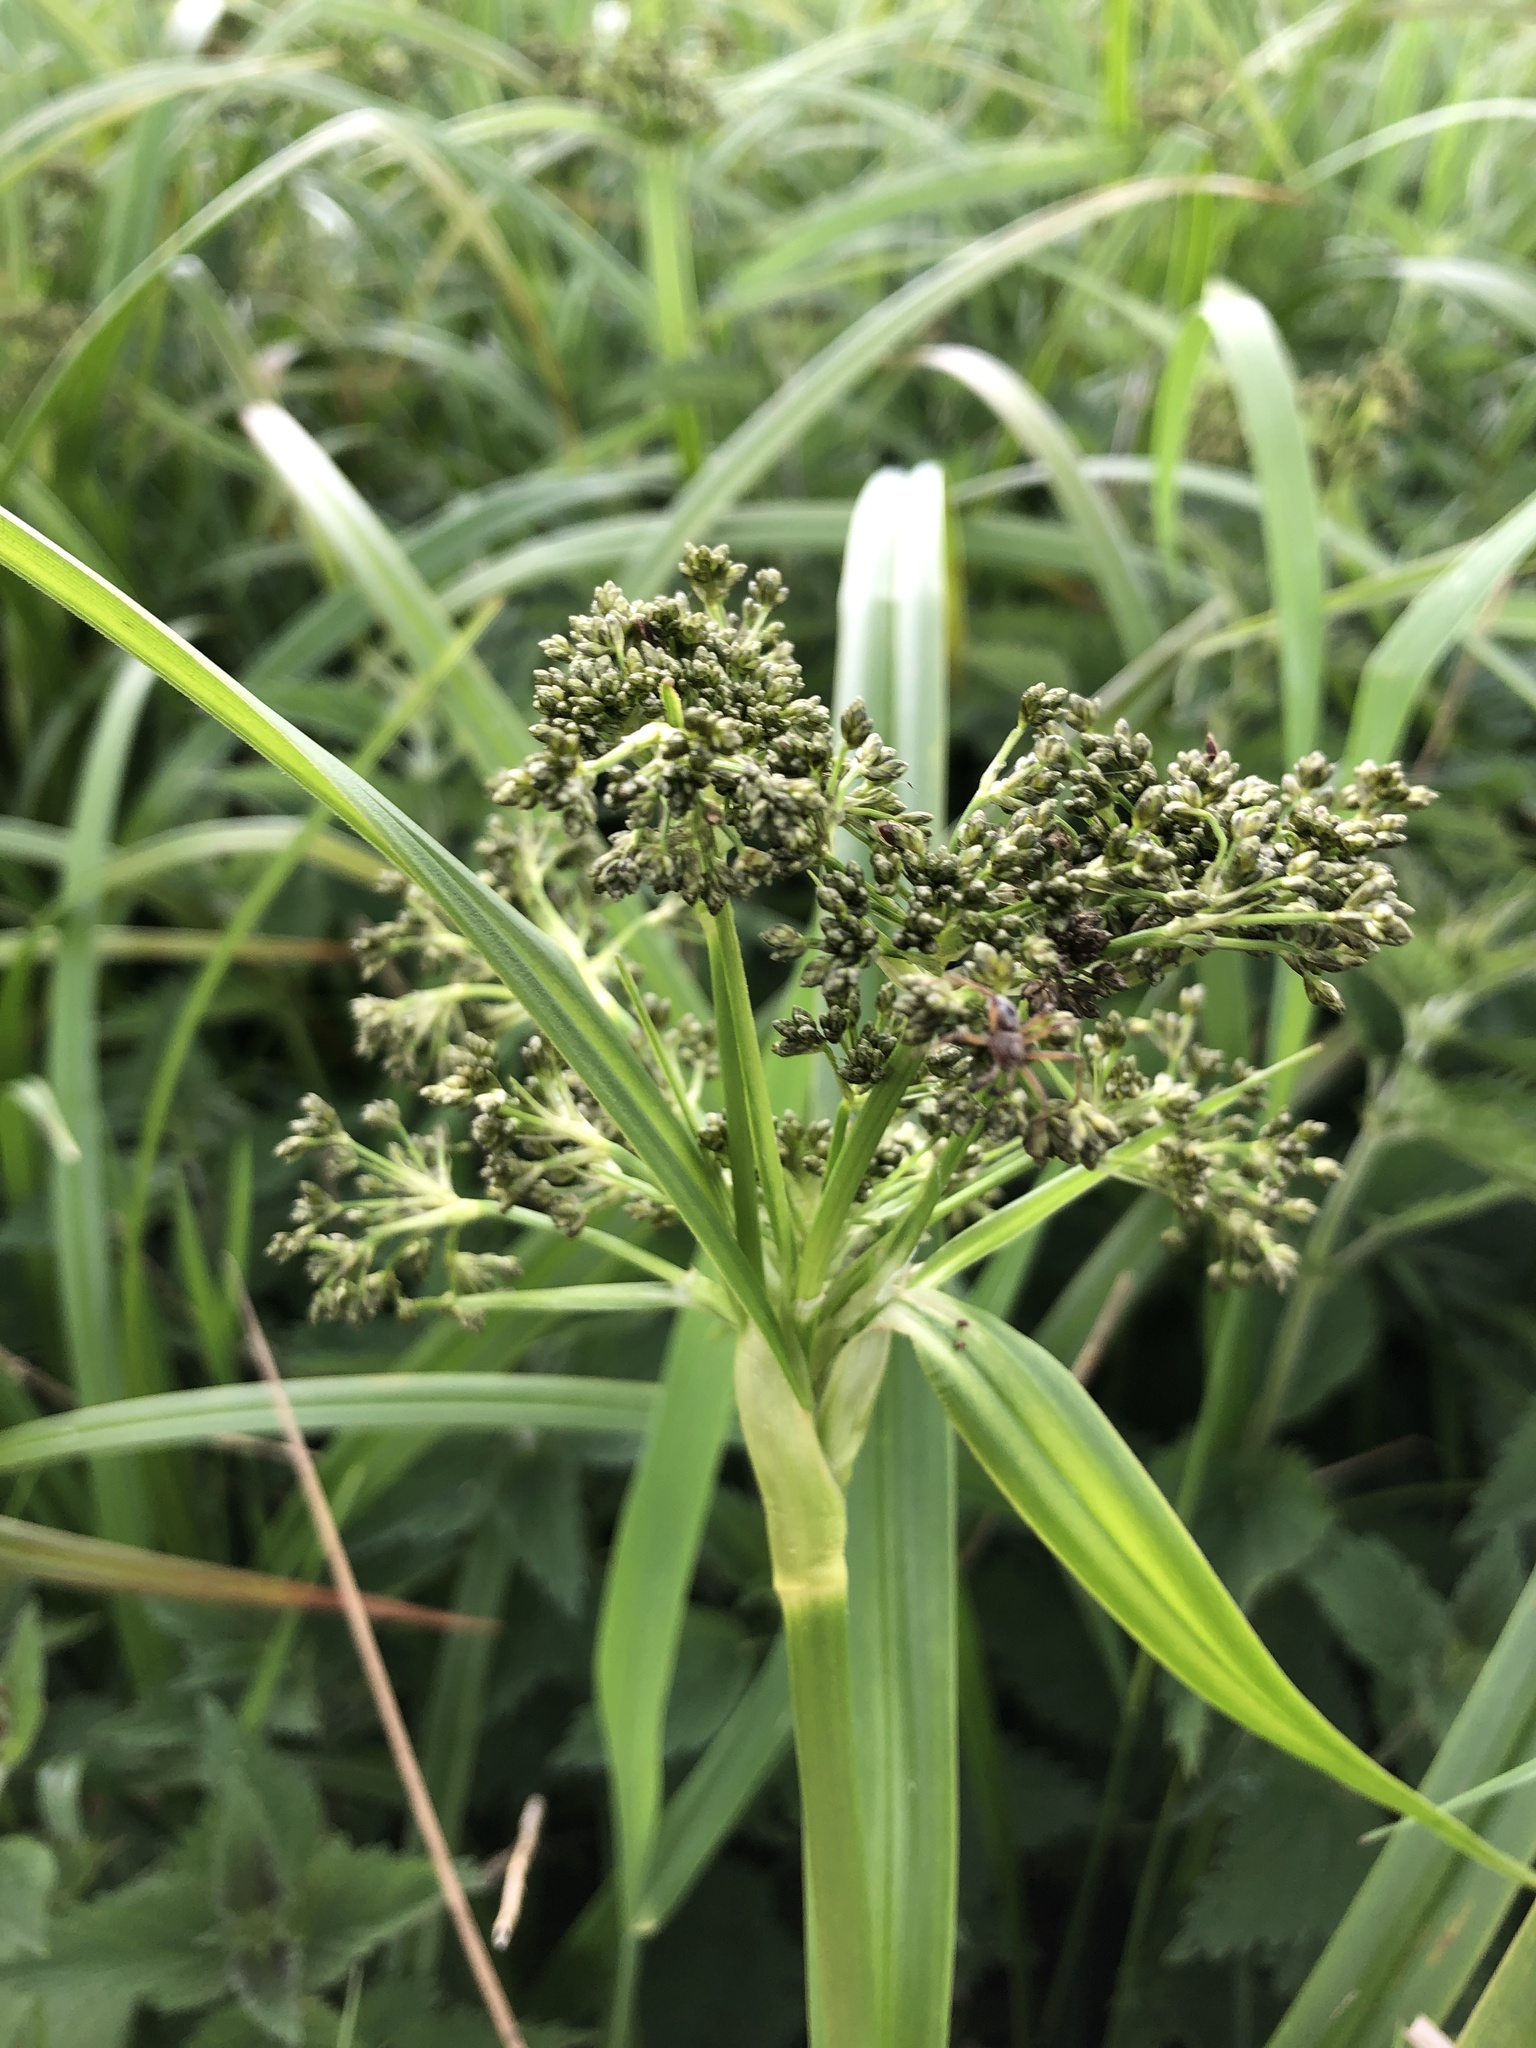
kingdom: Plantae
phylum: Tracheophyta
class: Liliopsida
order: Poales
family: Cyperaceae
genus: Scirpus
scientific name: Scirpus sylvaticus
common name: Wood club-rush
